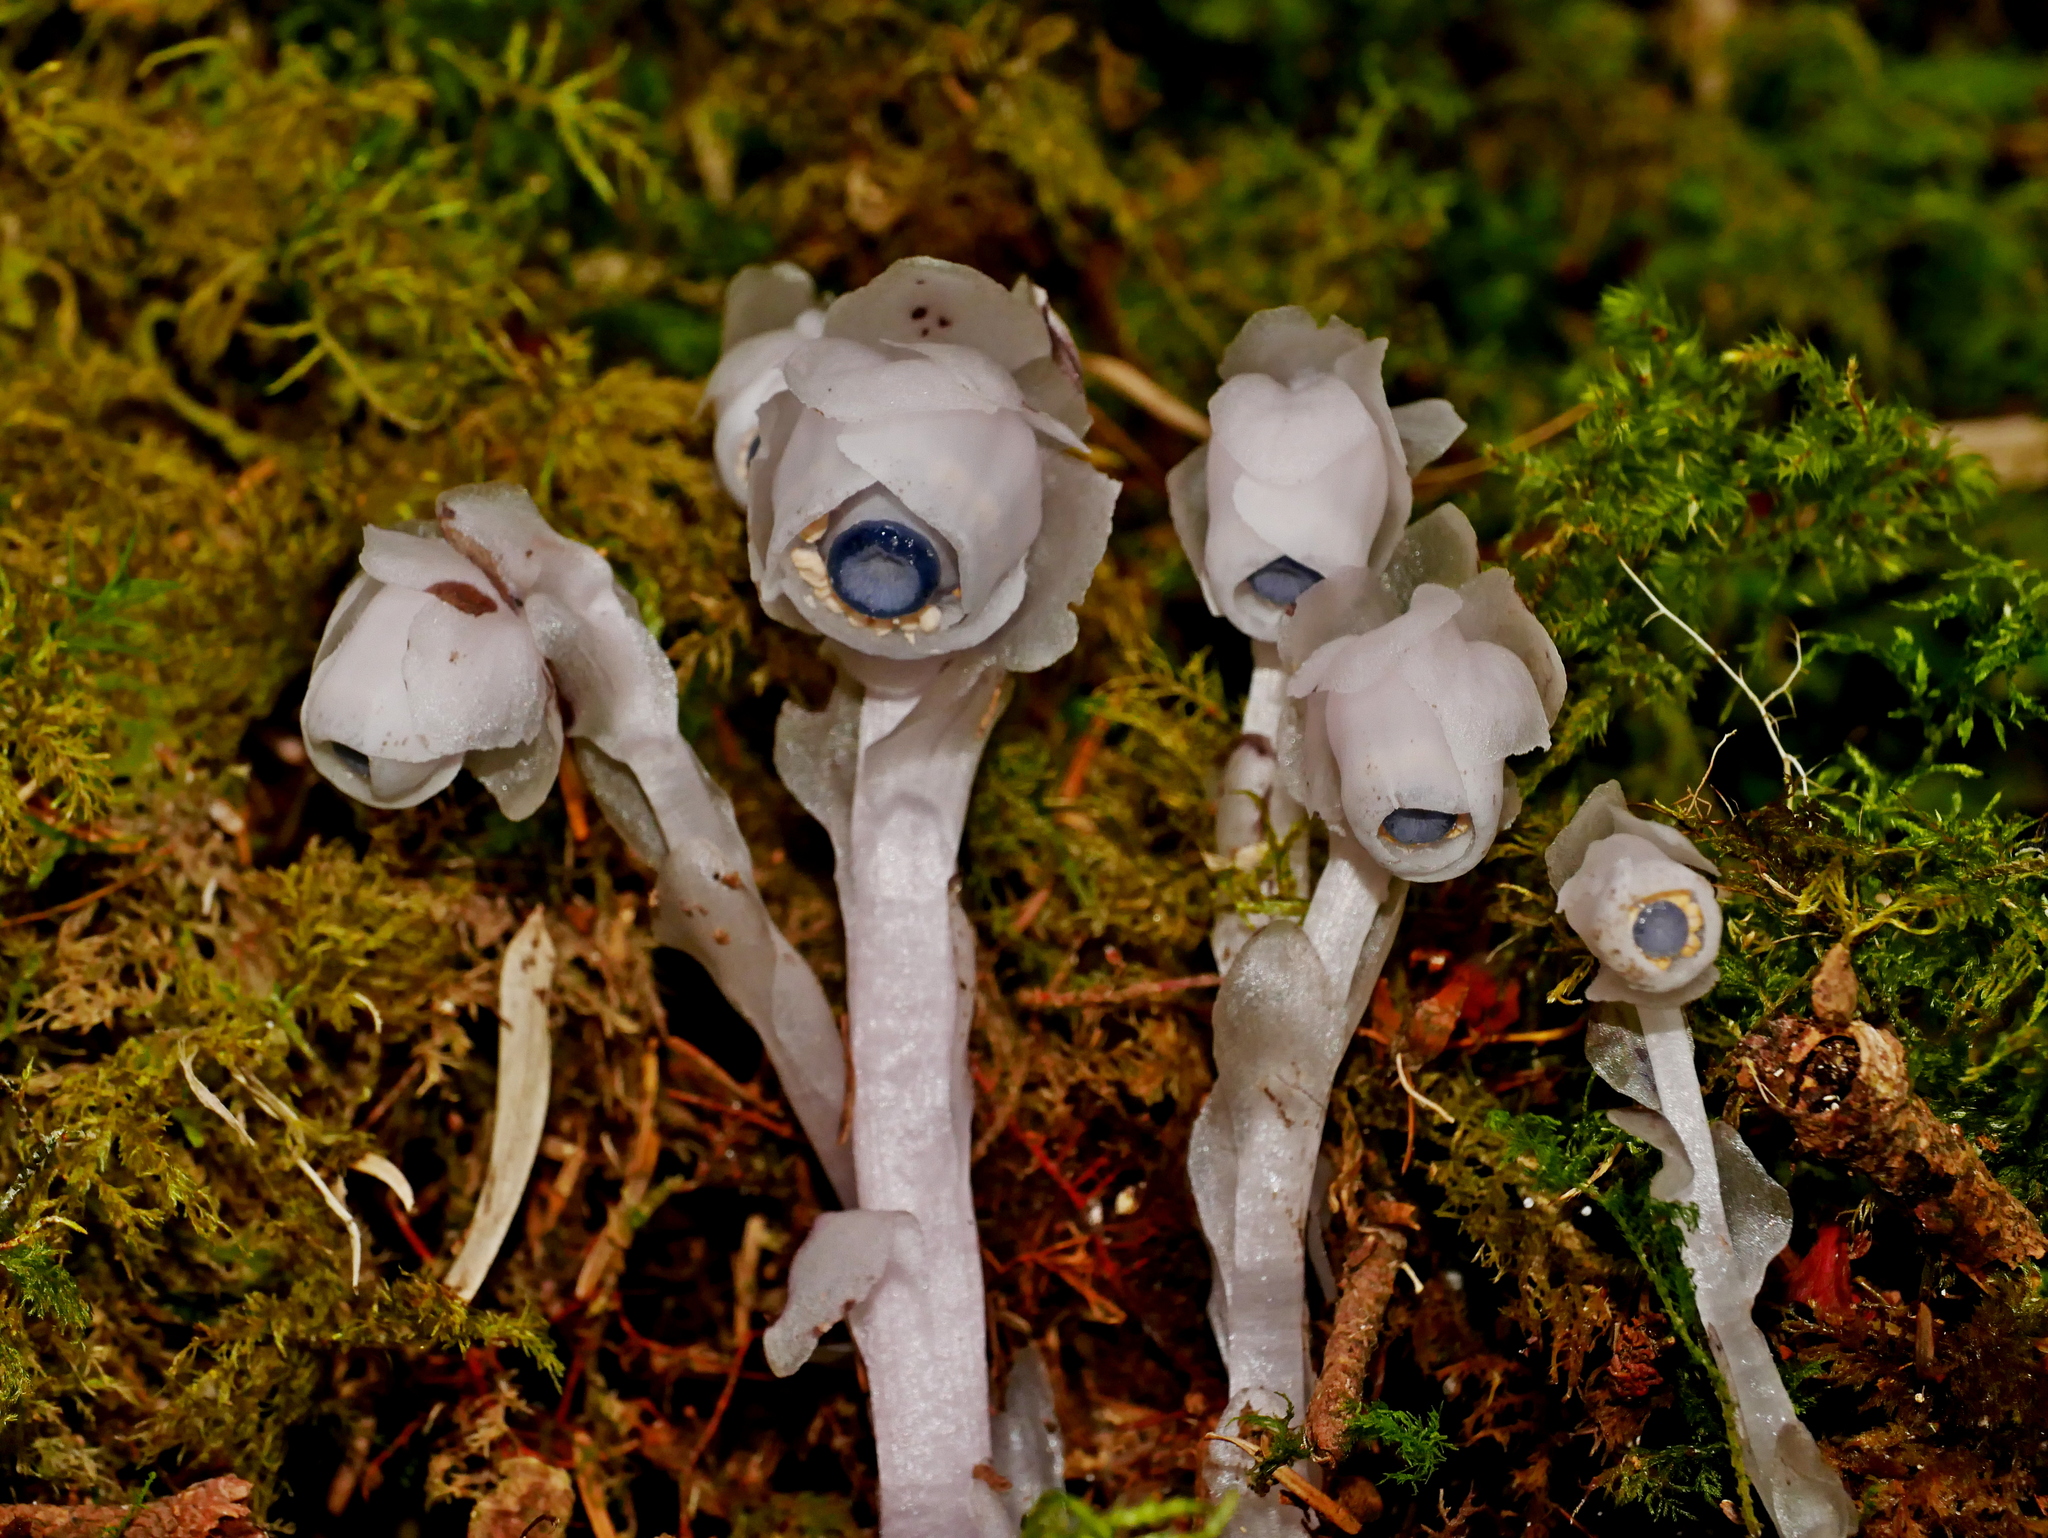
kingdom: Plantae
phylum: Tracheophyta
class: Magnoliopsida
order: Ericales
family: Ericaceae
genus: Monotropastrum
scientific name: Monotropastrum humile
